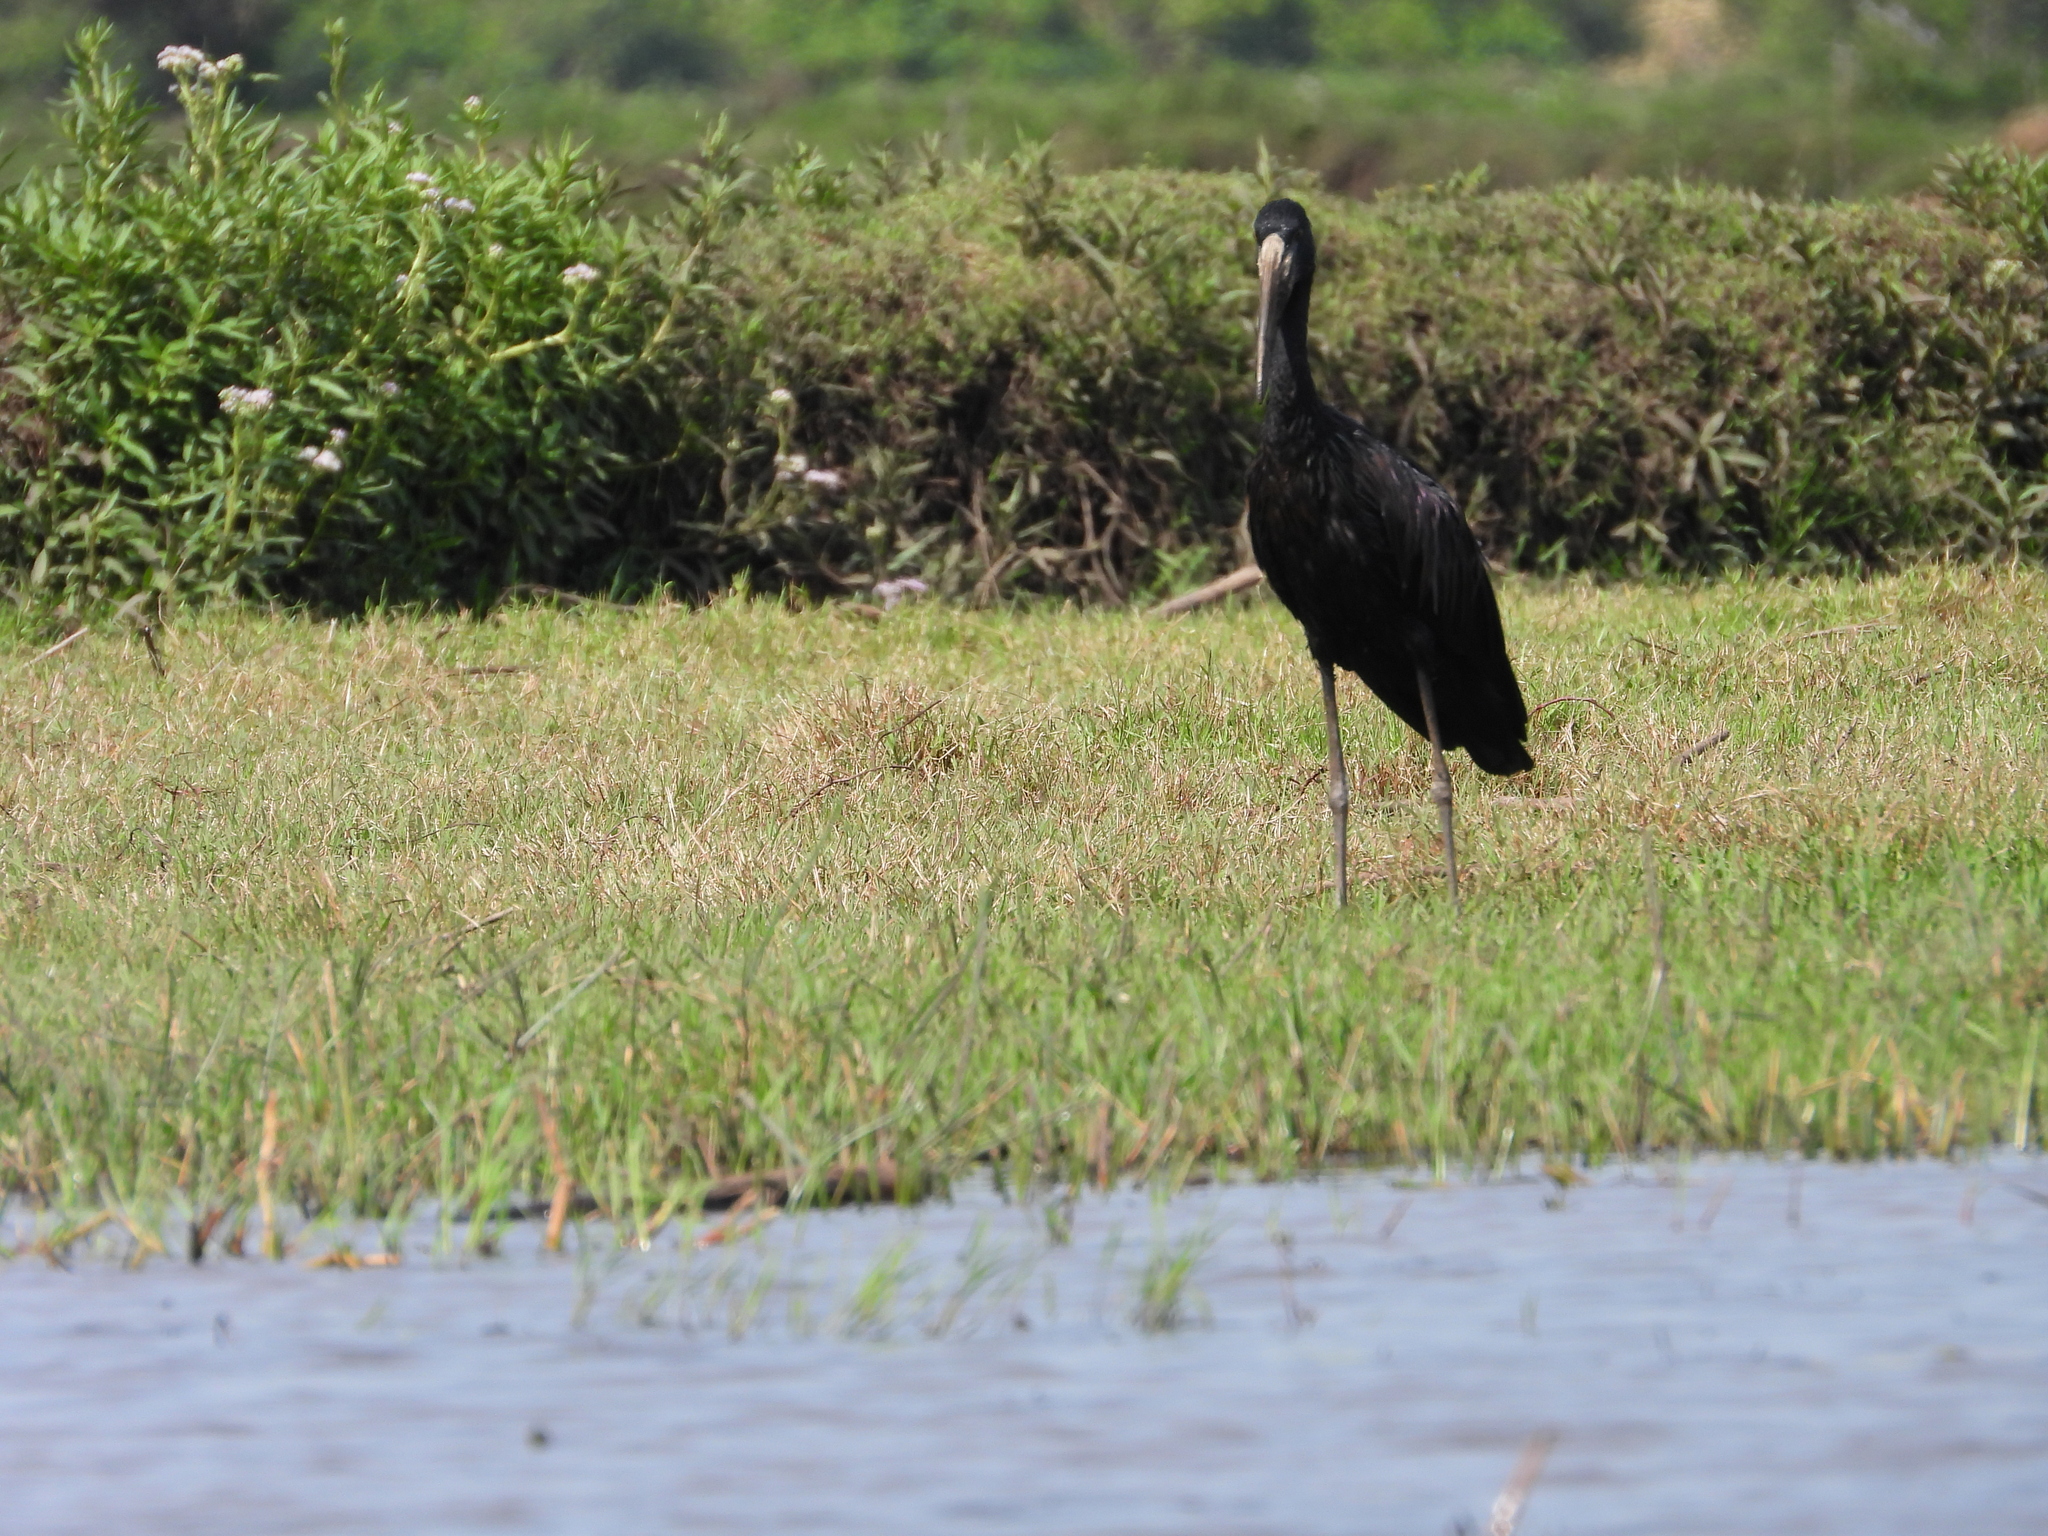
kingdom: Animalia
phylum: Chordata
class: Aves
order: Ciconiiformes
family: Ciconiidae
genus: Anastomus
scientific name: Anastomus lamelligerus
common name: African openbill
